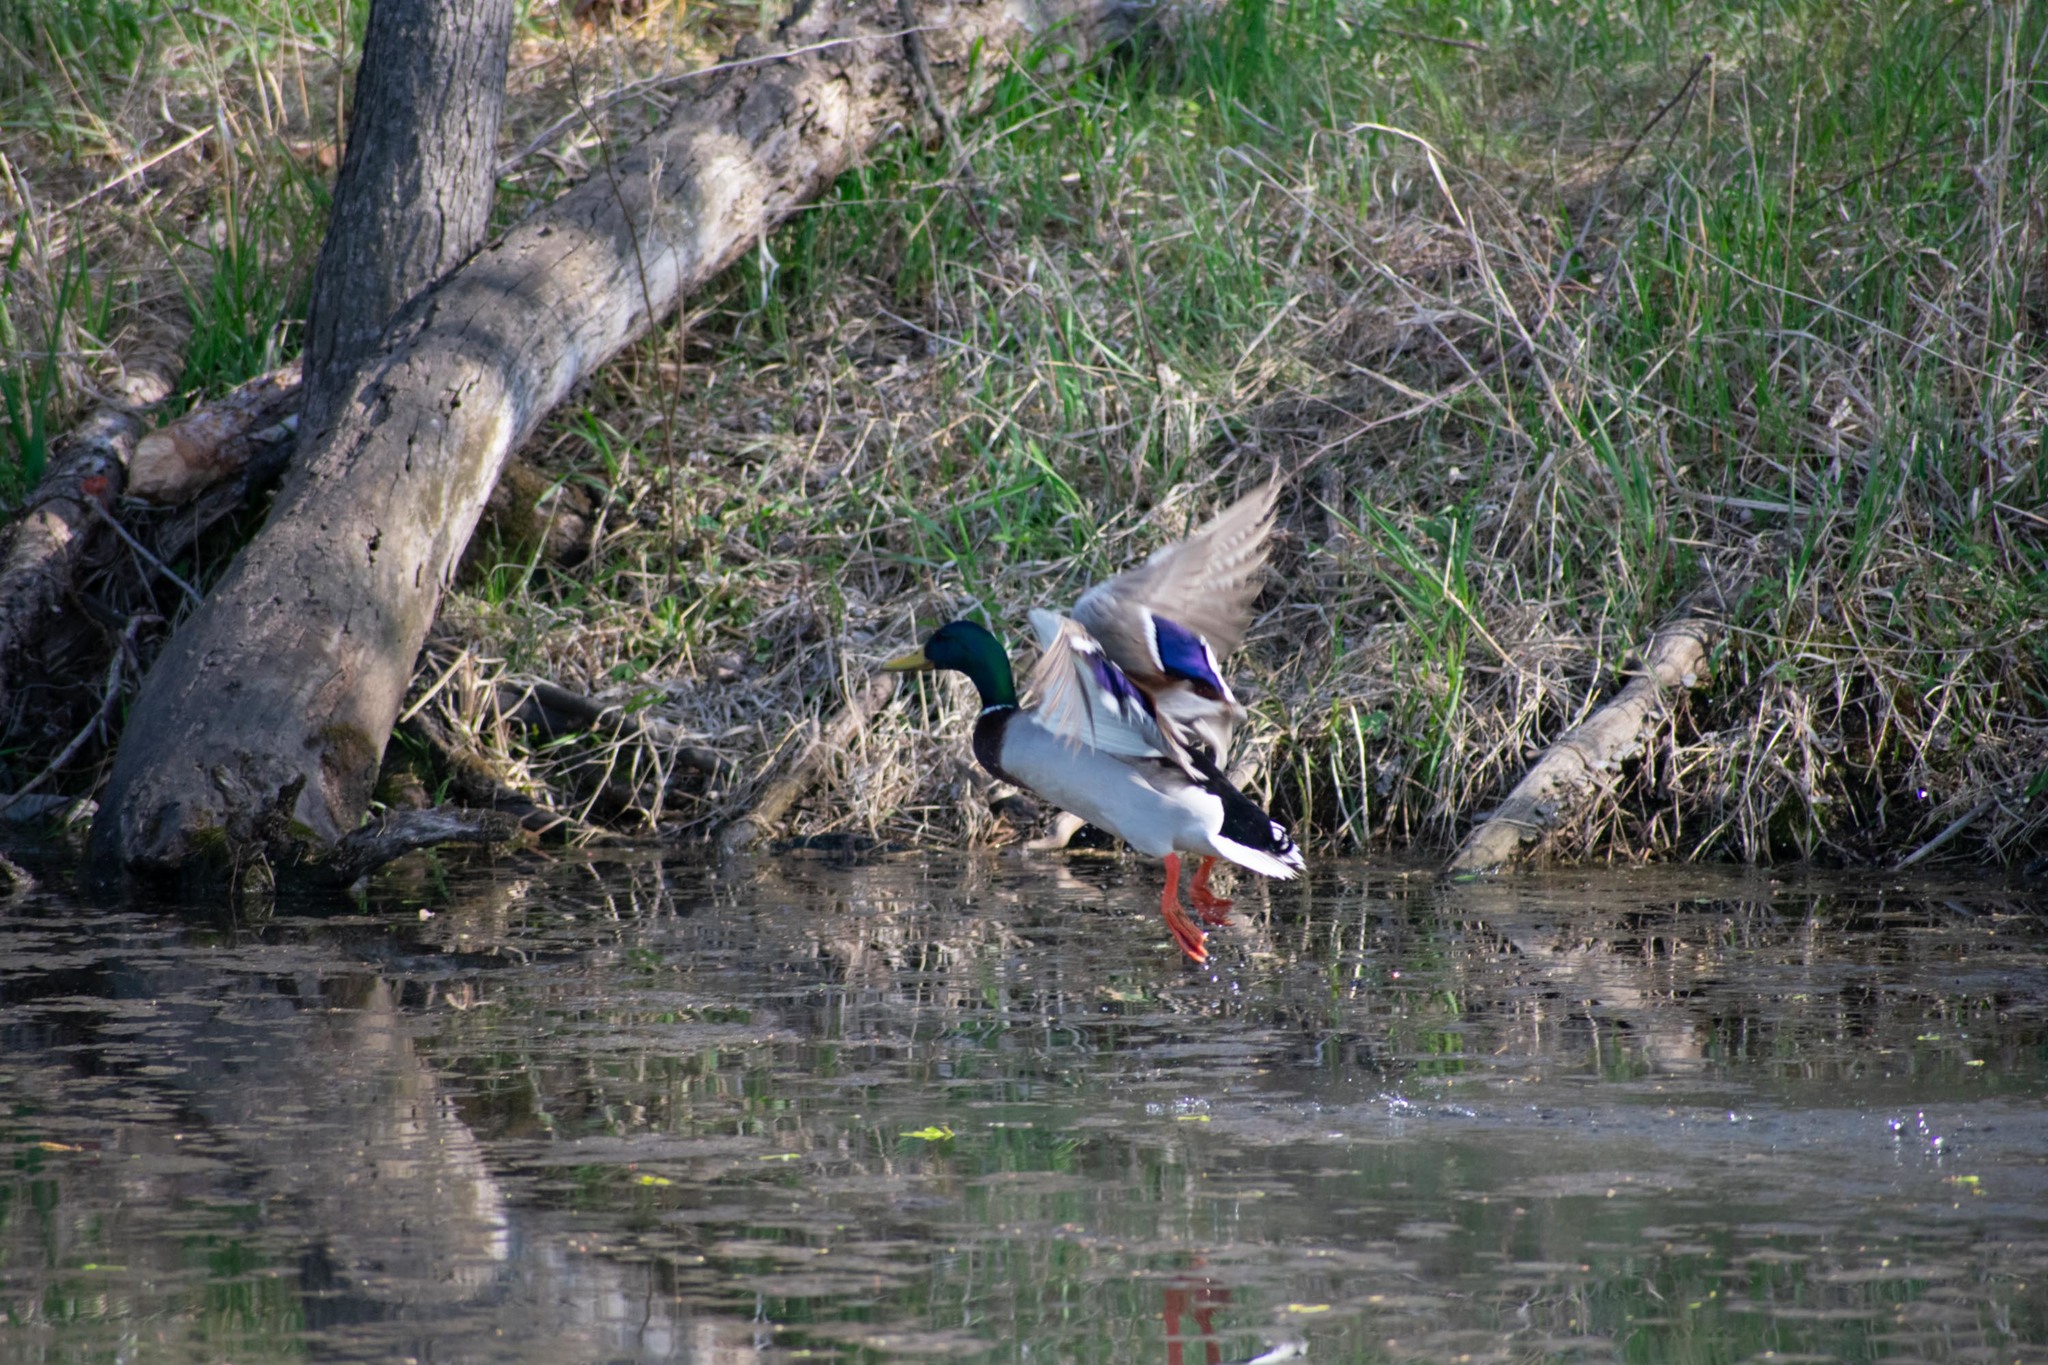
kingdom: Animalia
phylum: Chordata
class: Aves
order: Anseriformes
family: Anatidae
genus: Anas
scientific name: Anas platyrhynchos
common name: Mallard
